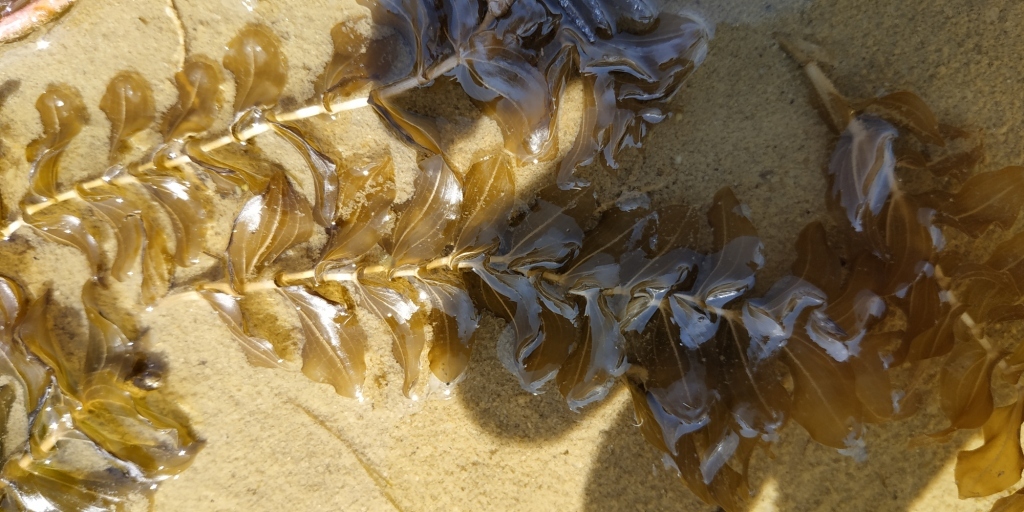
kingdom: Plantae
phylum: Tracheophyta
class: Liliopsida
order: Alismatales
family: Potamogetonaceae
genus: Potamogeton
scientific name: Potamogeton perfoliatus
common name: Perfoliate pondweed
